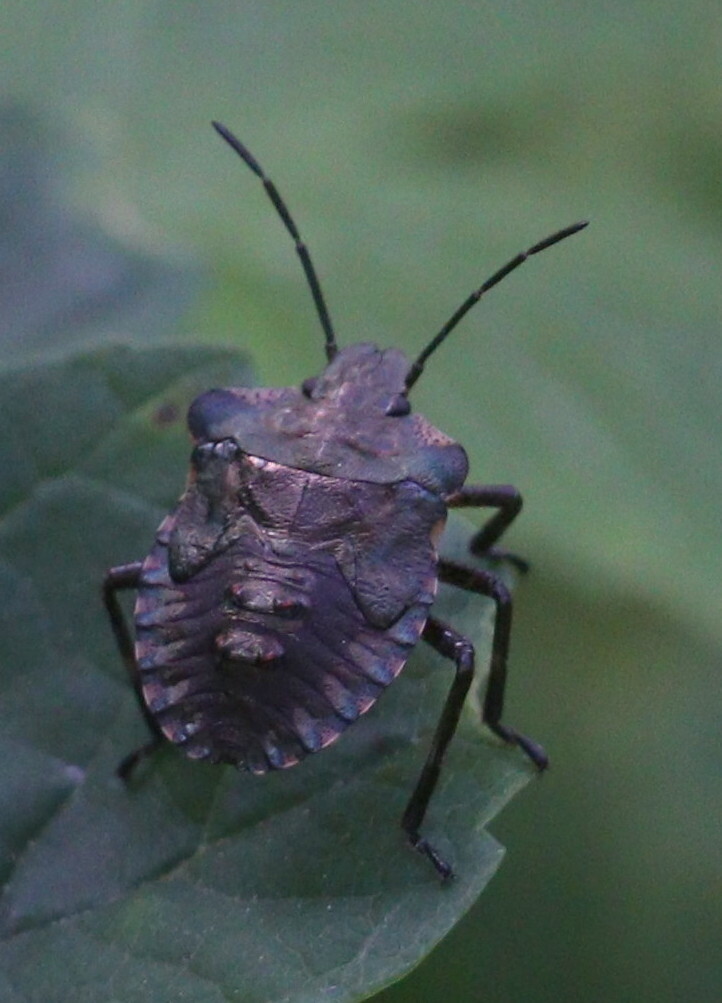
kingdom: Animalia
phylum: Arthropoda
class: Insecta
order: Hemiptera
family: Pentatomidae
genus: Pentatoma
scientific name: Pentatoma rufipes
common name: Forest bug
